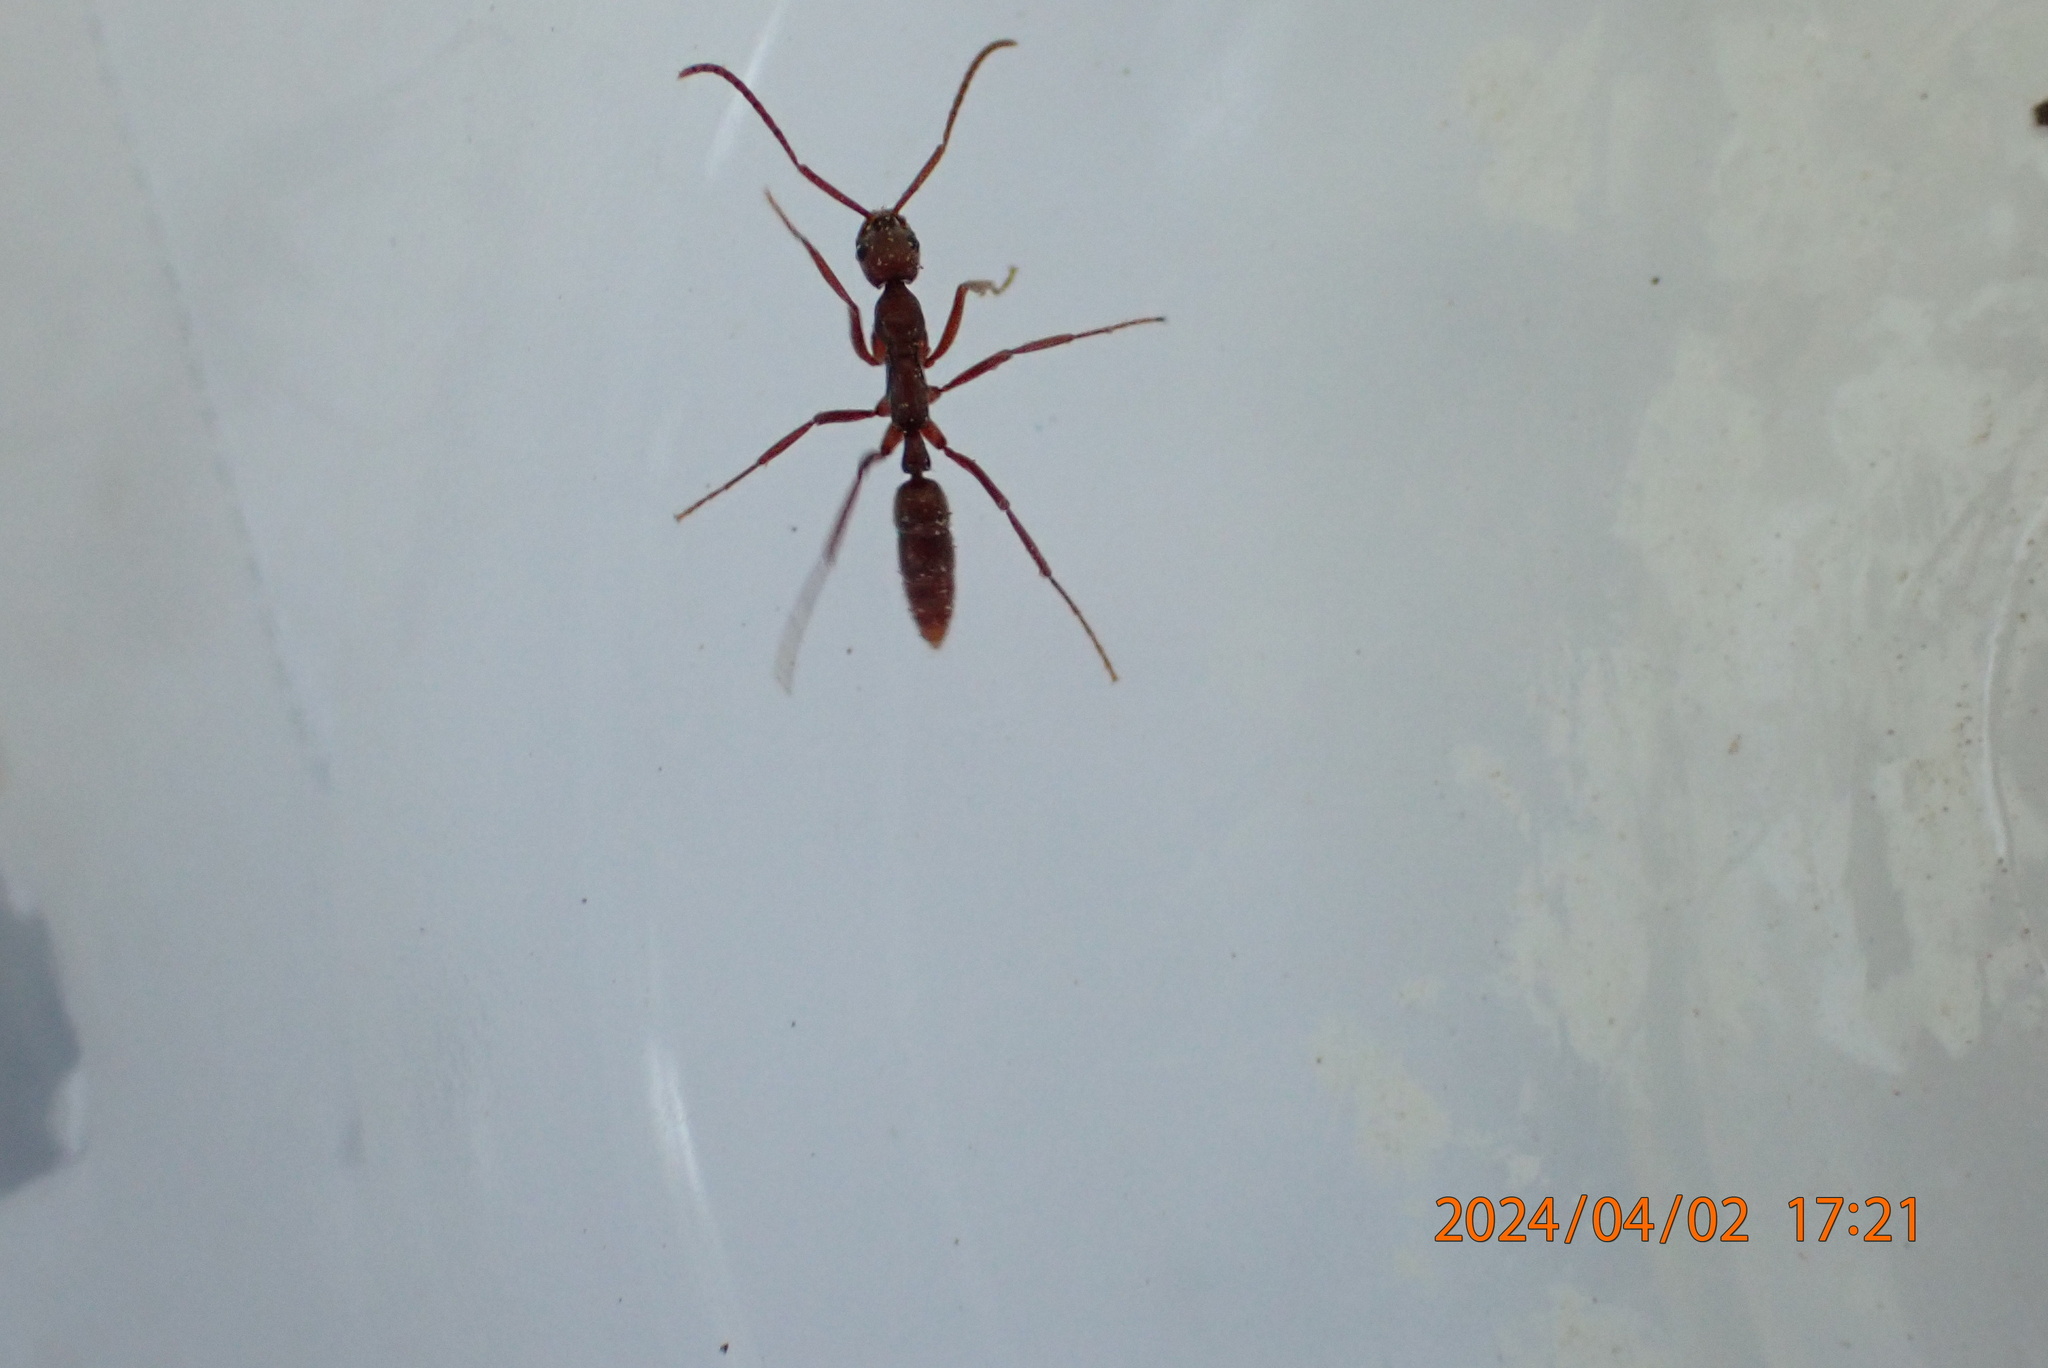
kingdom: Animalia
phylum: Arthropoda
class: Insecta
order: Hymenoptera
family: Formicidae
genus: Leptogenys
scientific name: Leptogenys elongata
